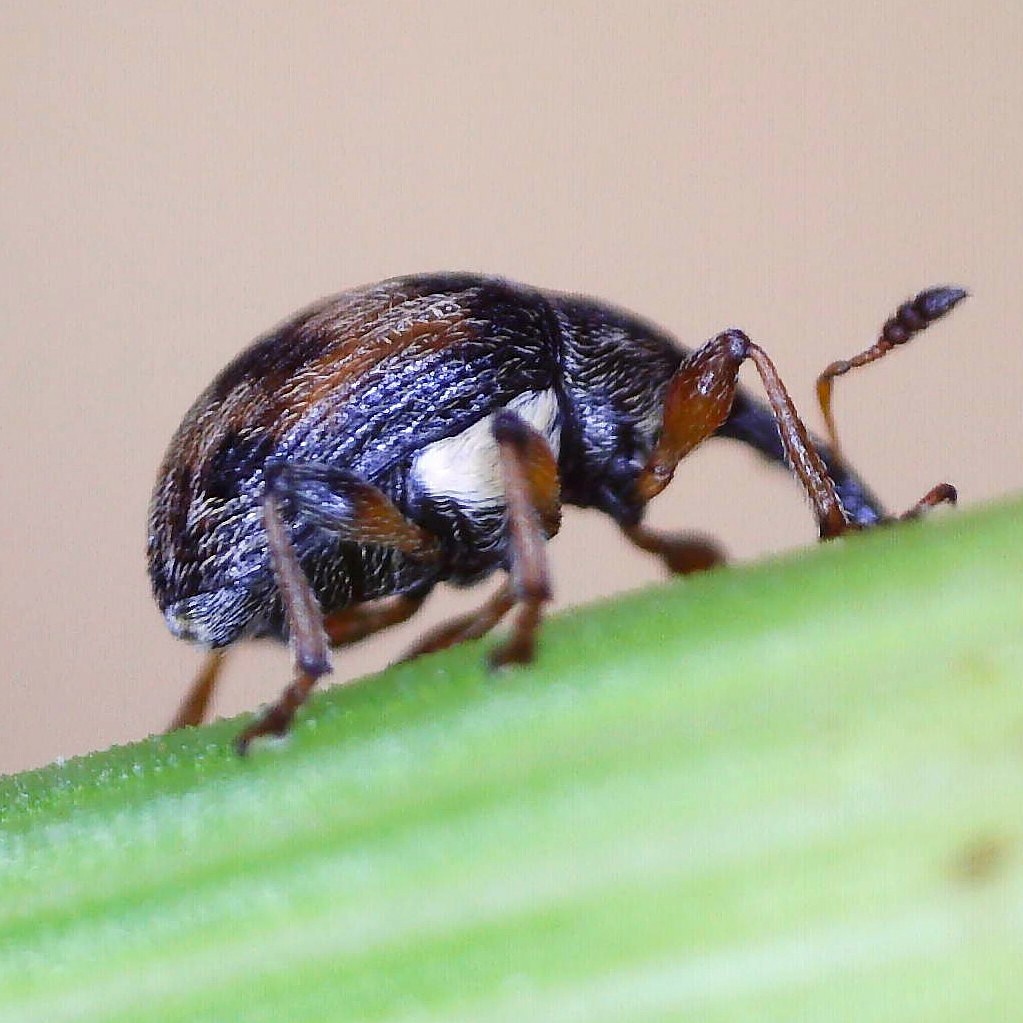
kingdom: Animalia
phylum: Arthropoda
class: Insecta
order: Coleoptera
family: Brentidae
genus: Nanophyes
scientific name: Nanophyes marmoratus
